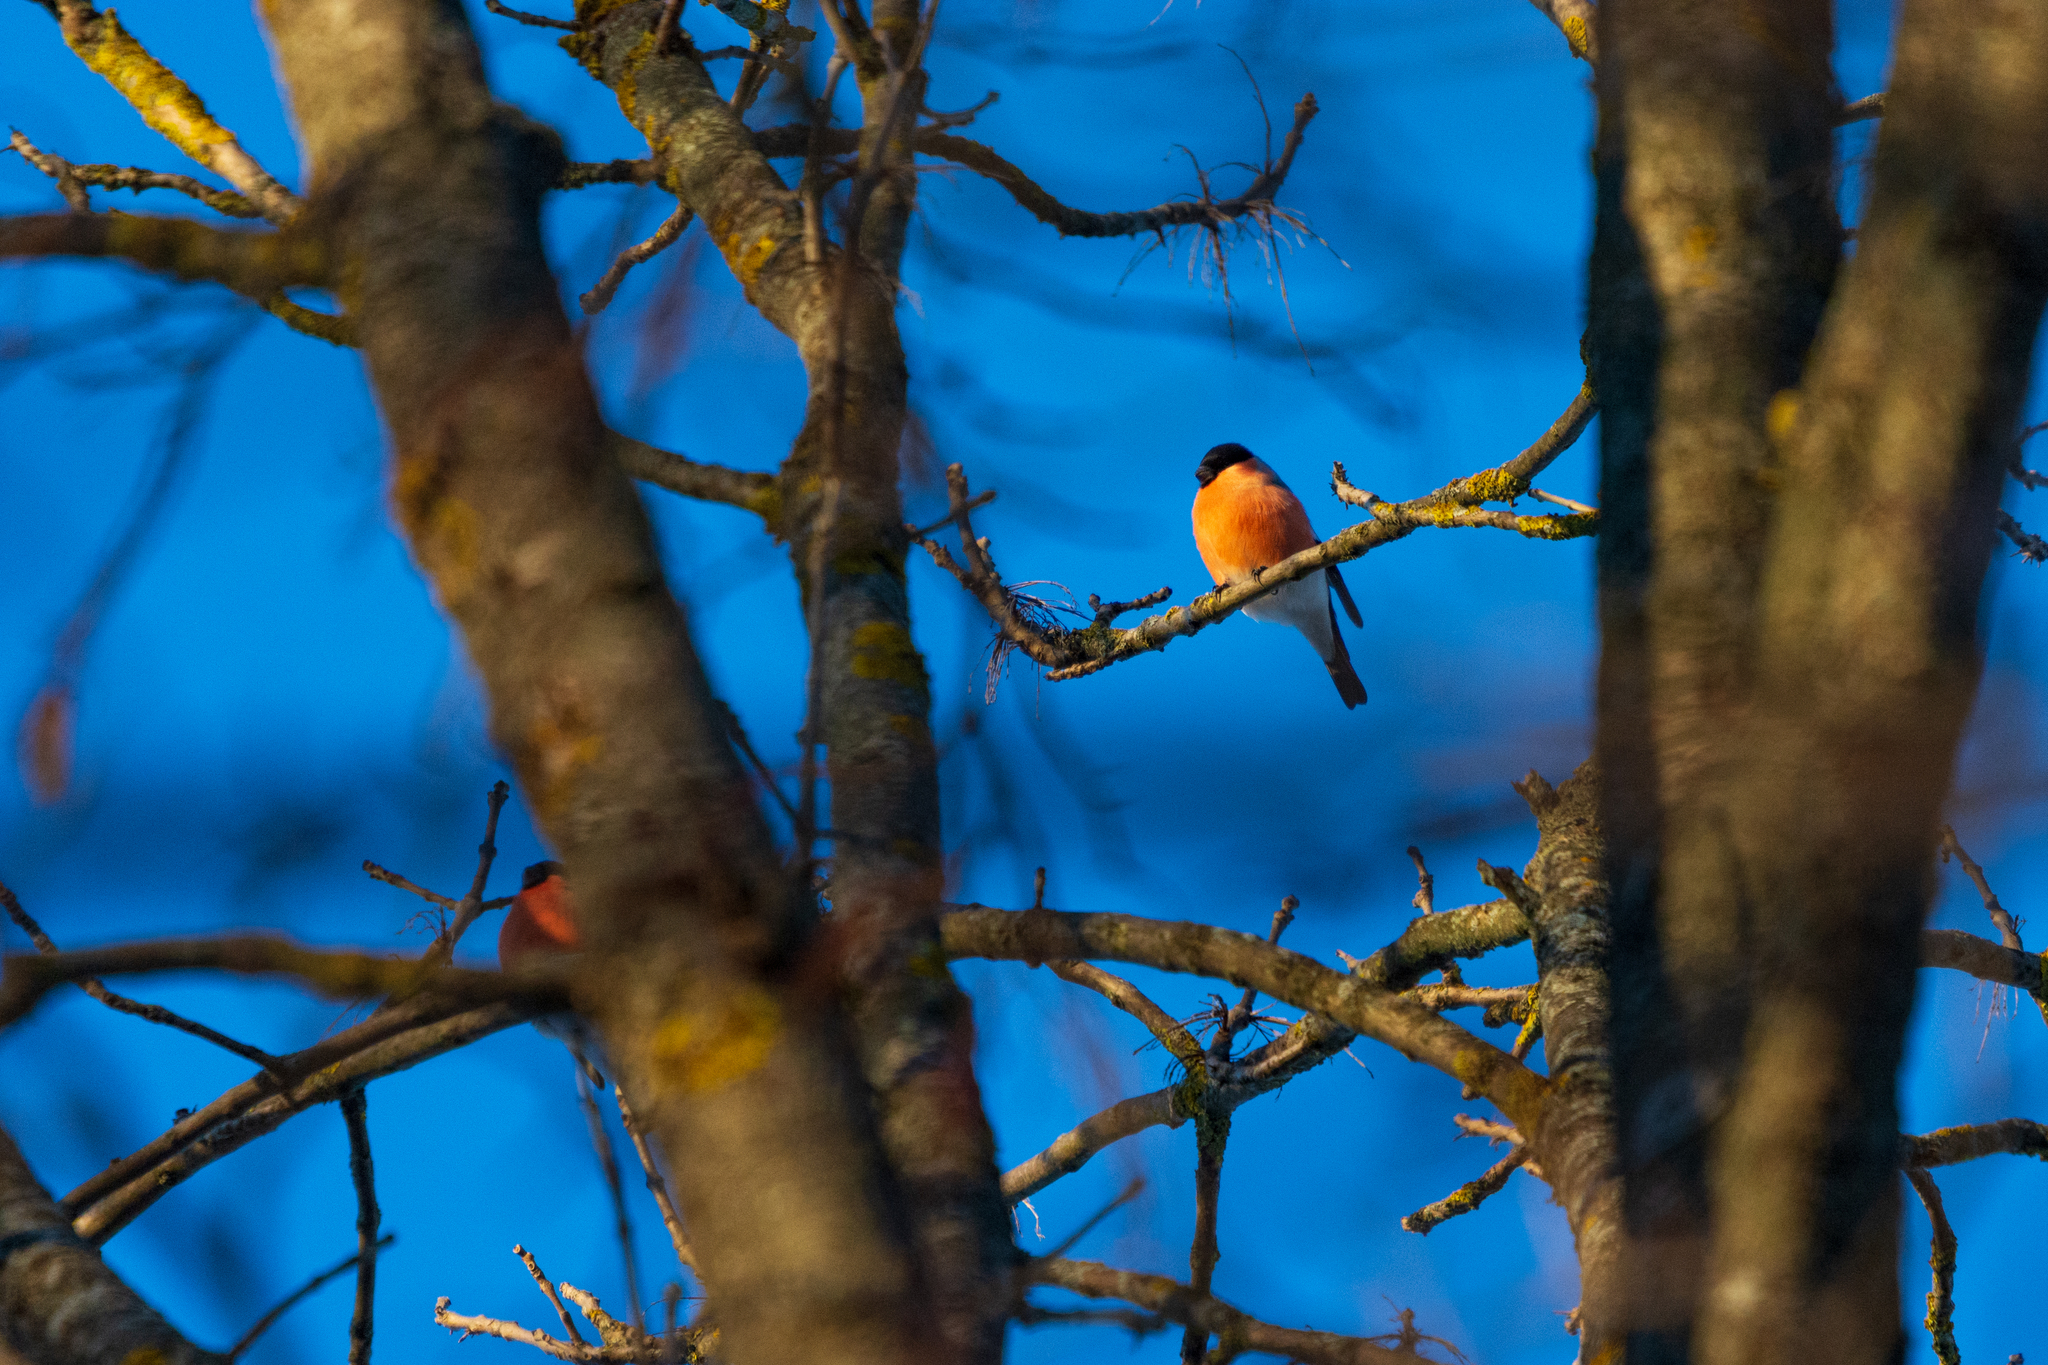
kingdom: Animalia
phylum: Chordata
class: Aves
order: Passeriformes
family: Fringillidae
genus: Pyrrhula
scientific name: Pyrrhula pyrrhula
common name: Eurasian bullfinch
